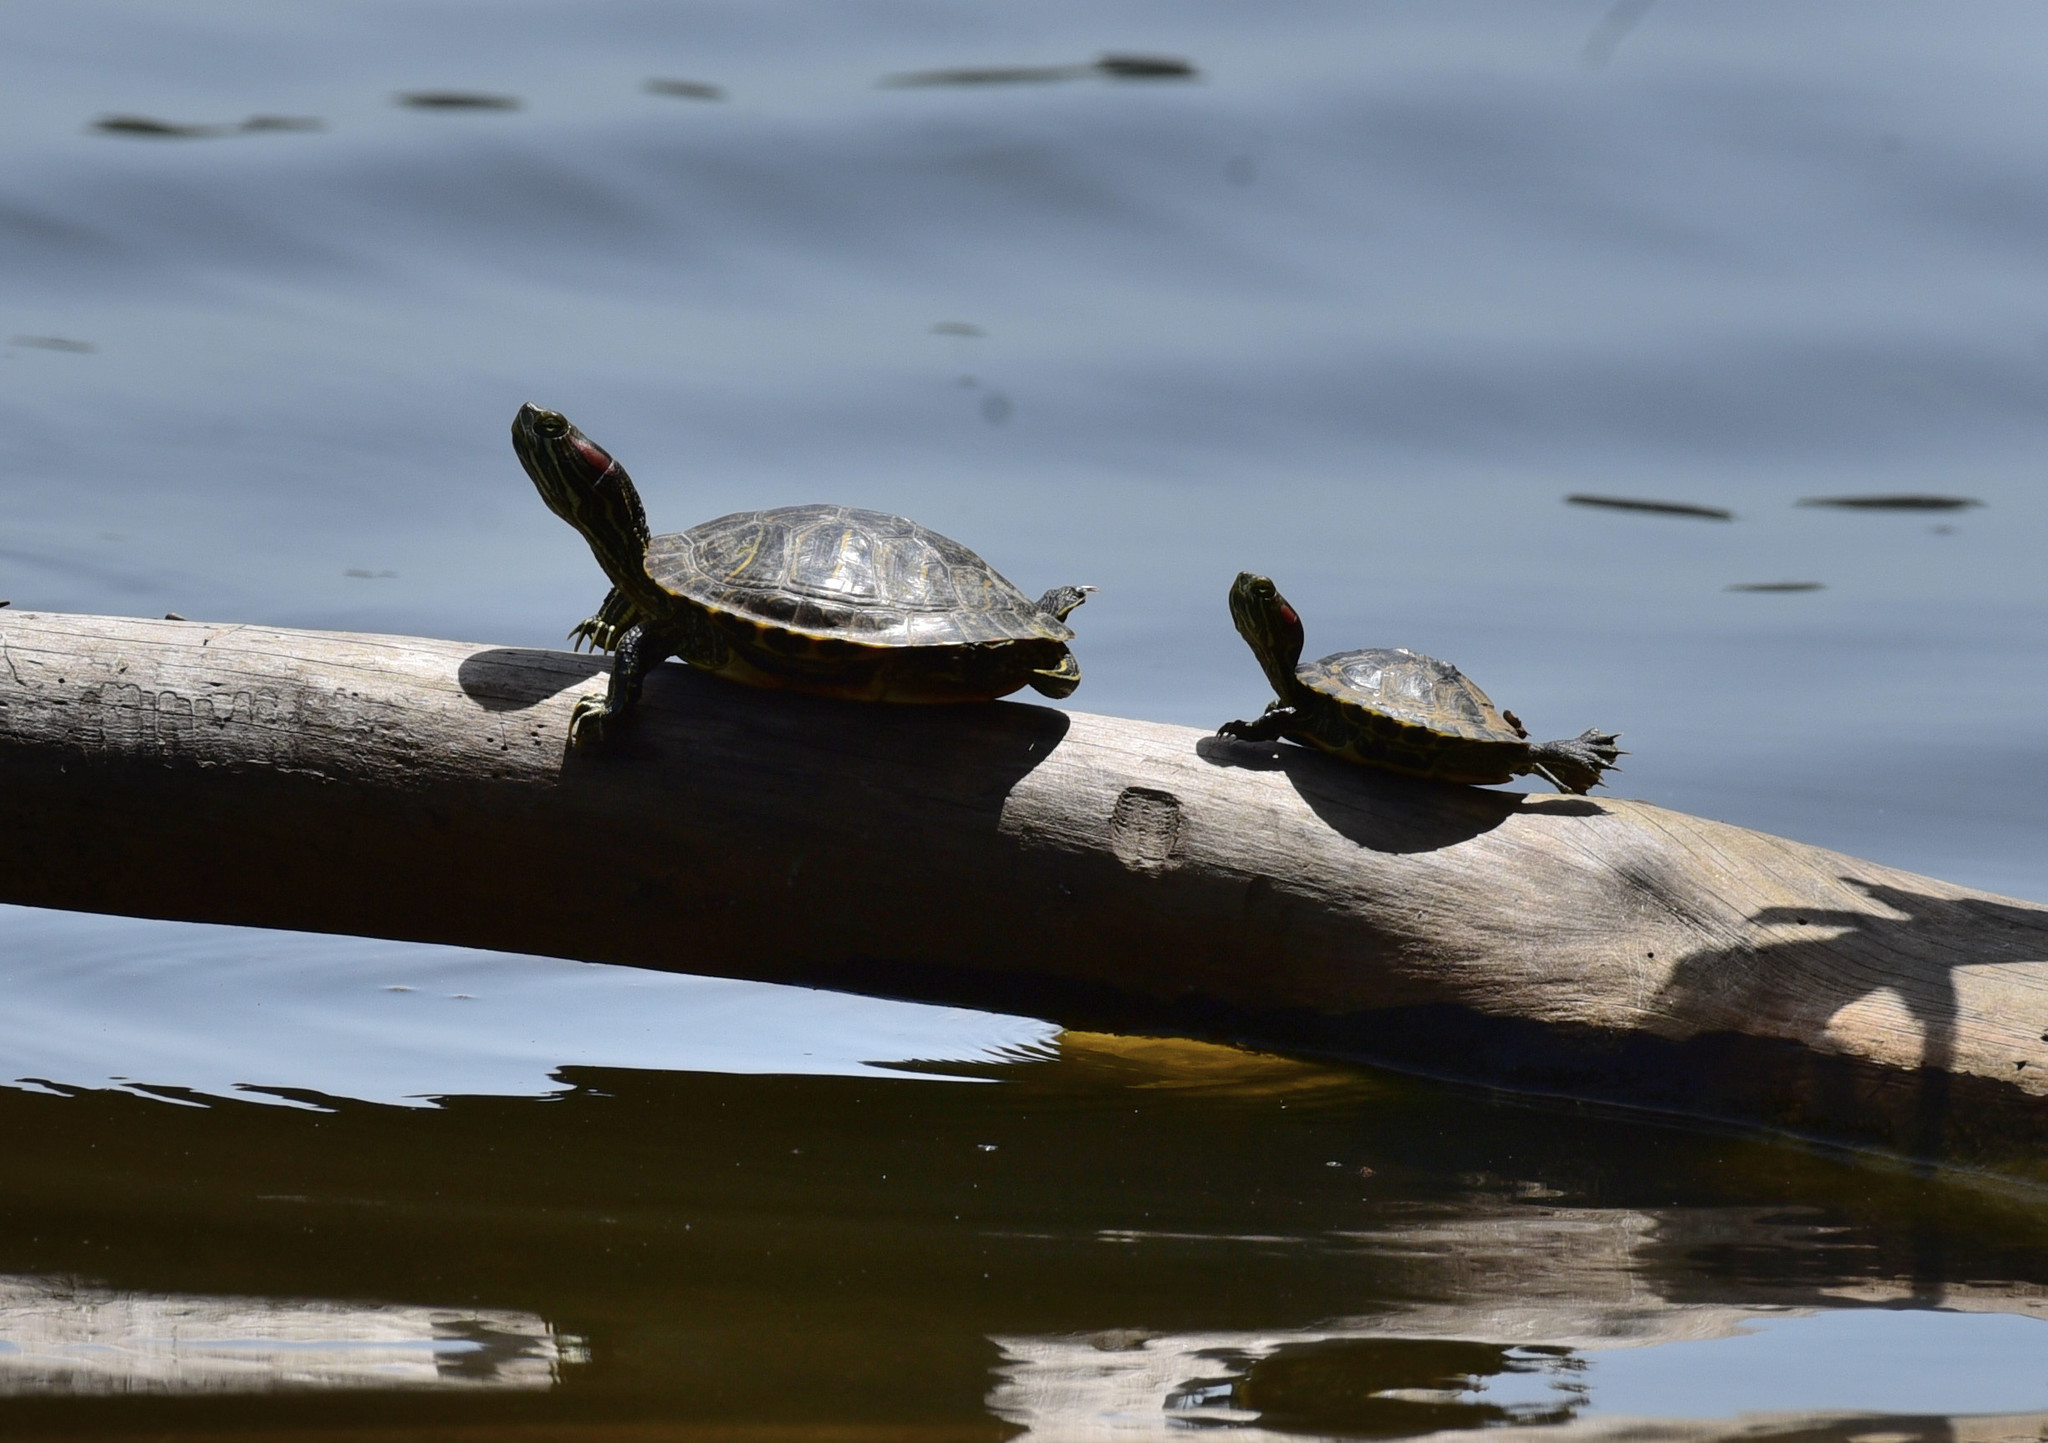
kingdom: Animalia
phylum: Chordata
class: Testudines
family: Emydidae
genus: Trachemys
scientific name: Trachemys scripta
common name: Slider
